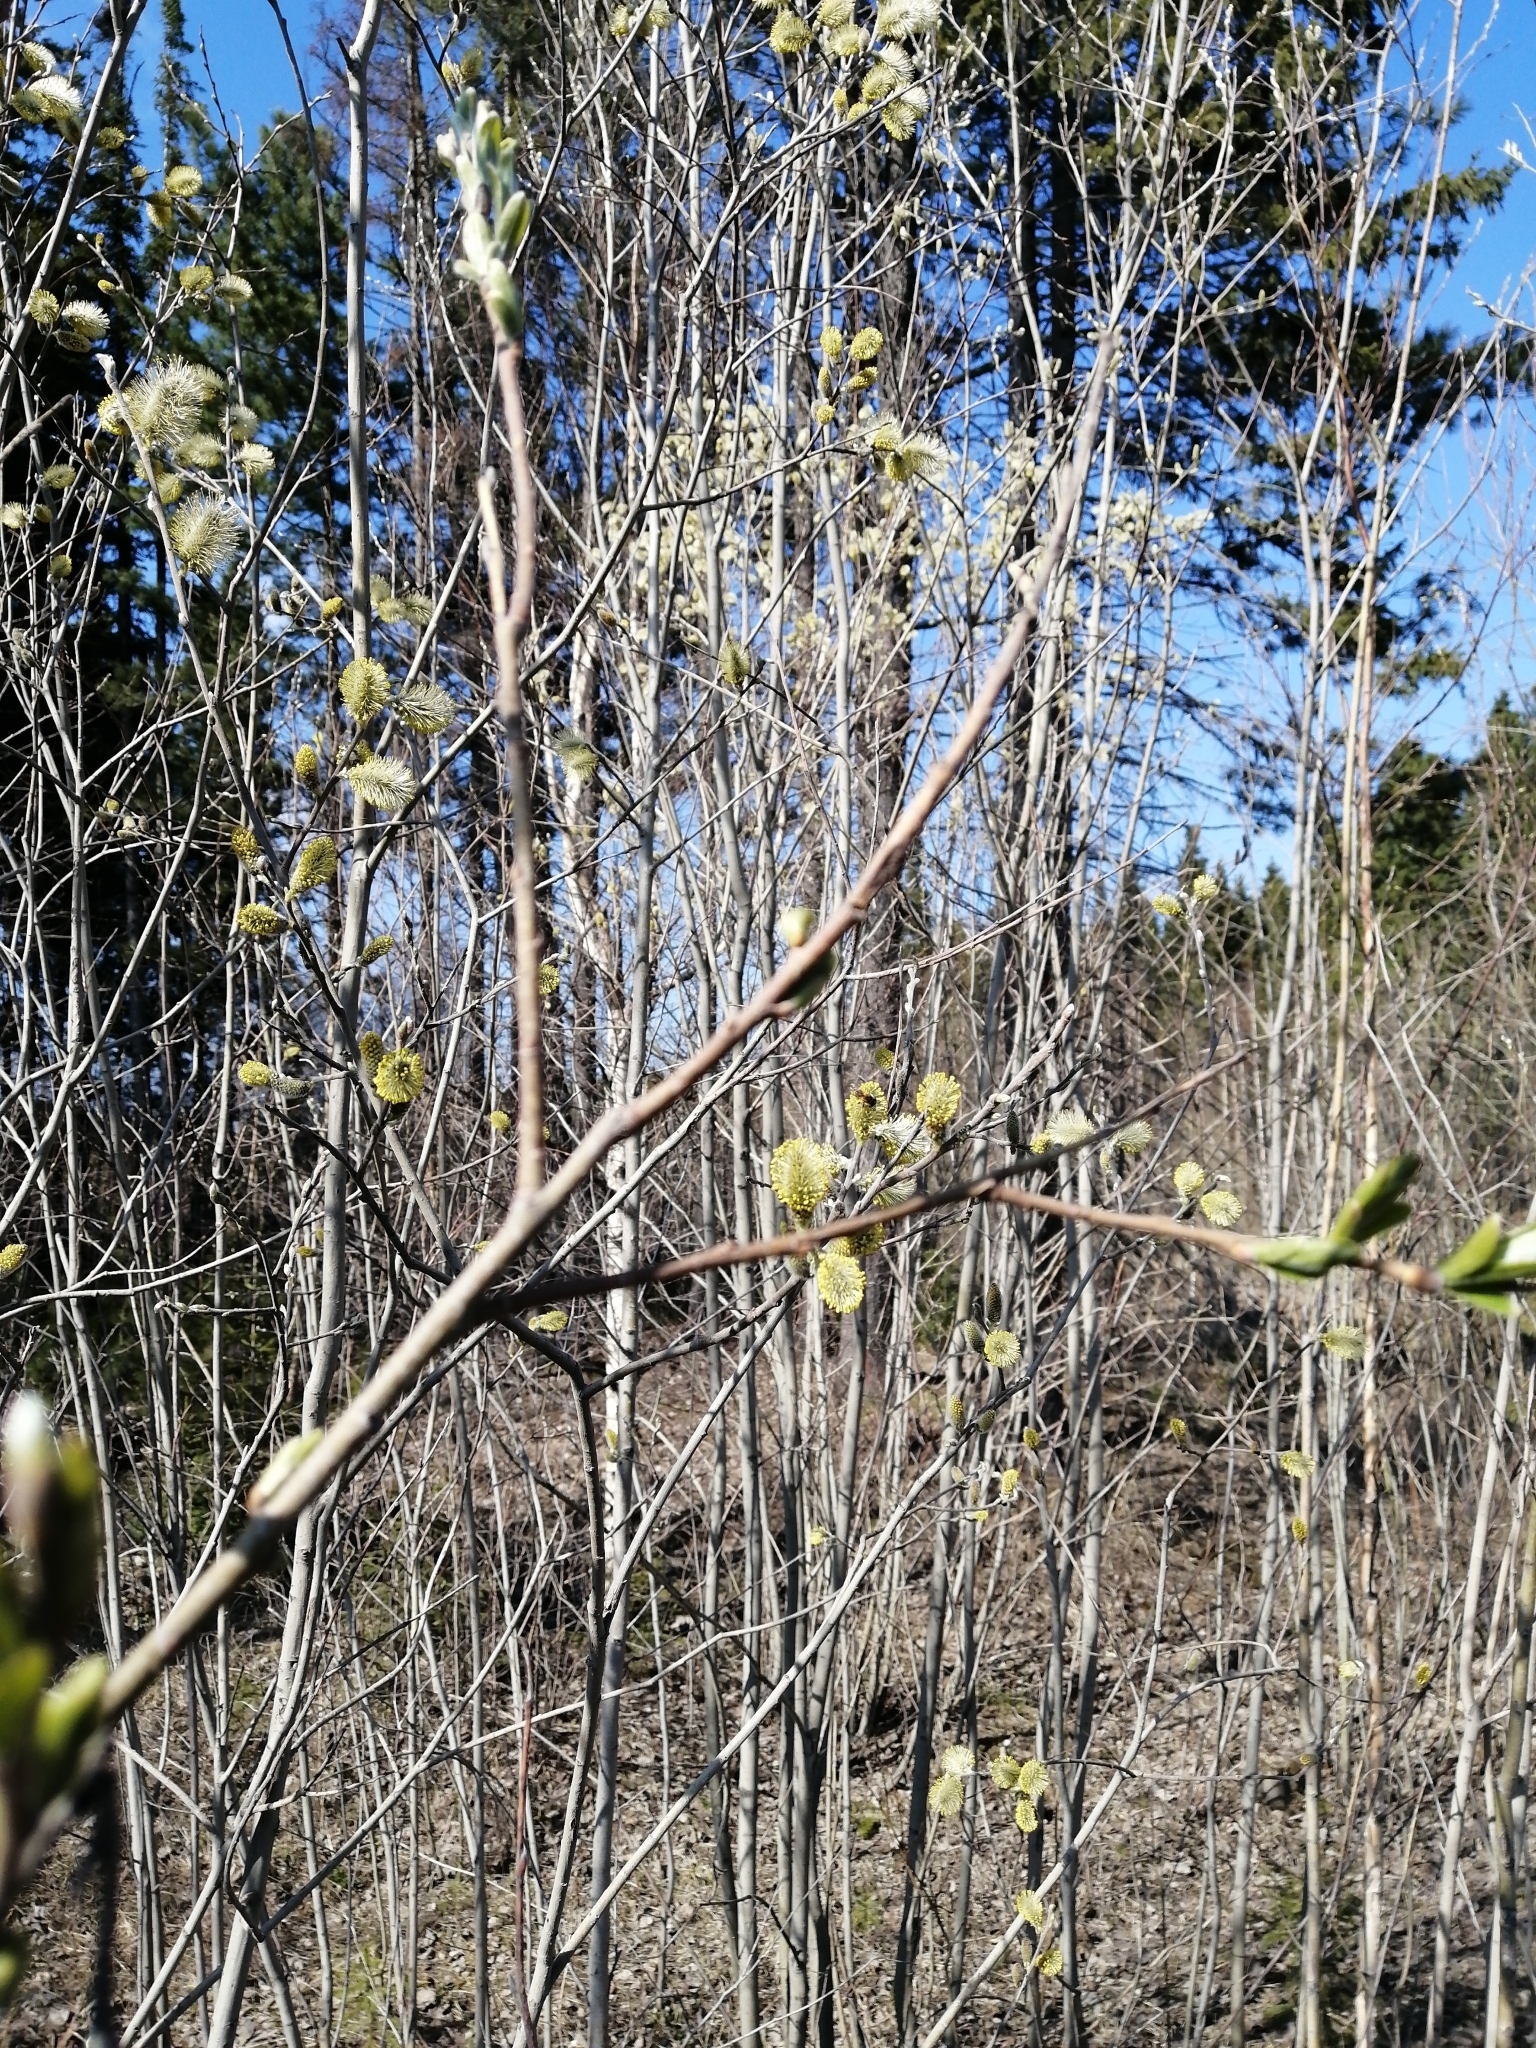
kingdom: Plantae
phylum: Tracheophyta
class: Magnoliopsida
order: Malpighiales
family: Salicaceae
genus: Salix
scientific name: Salix caprea
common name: Goat willow
